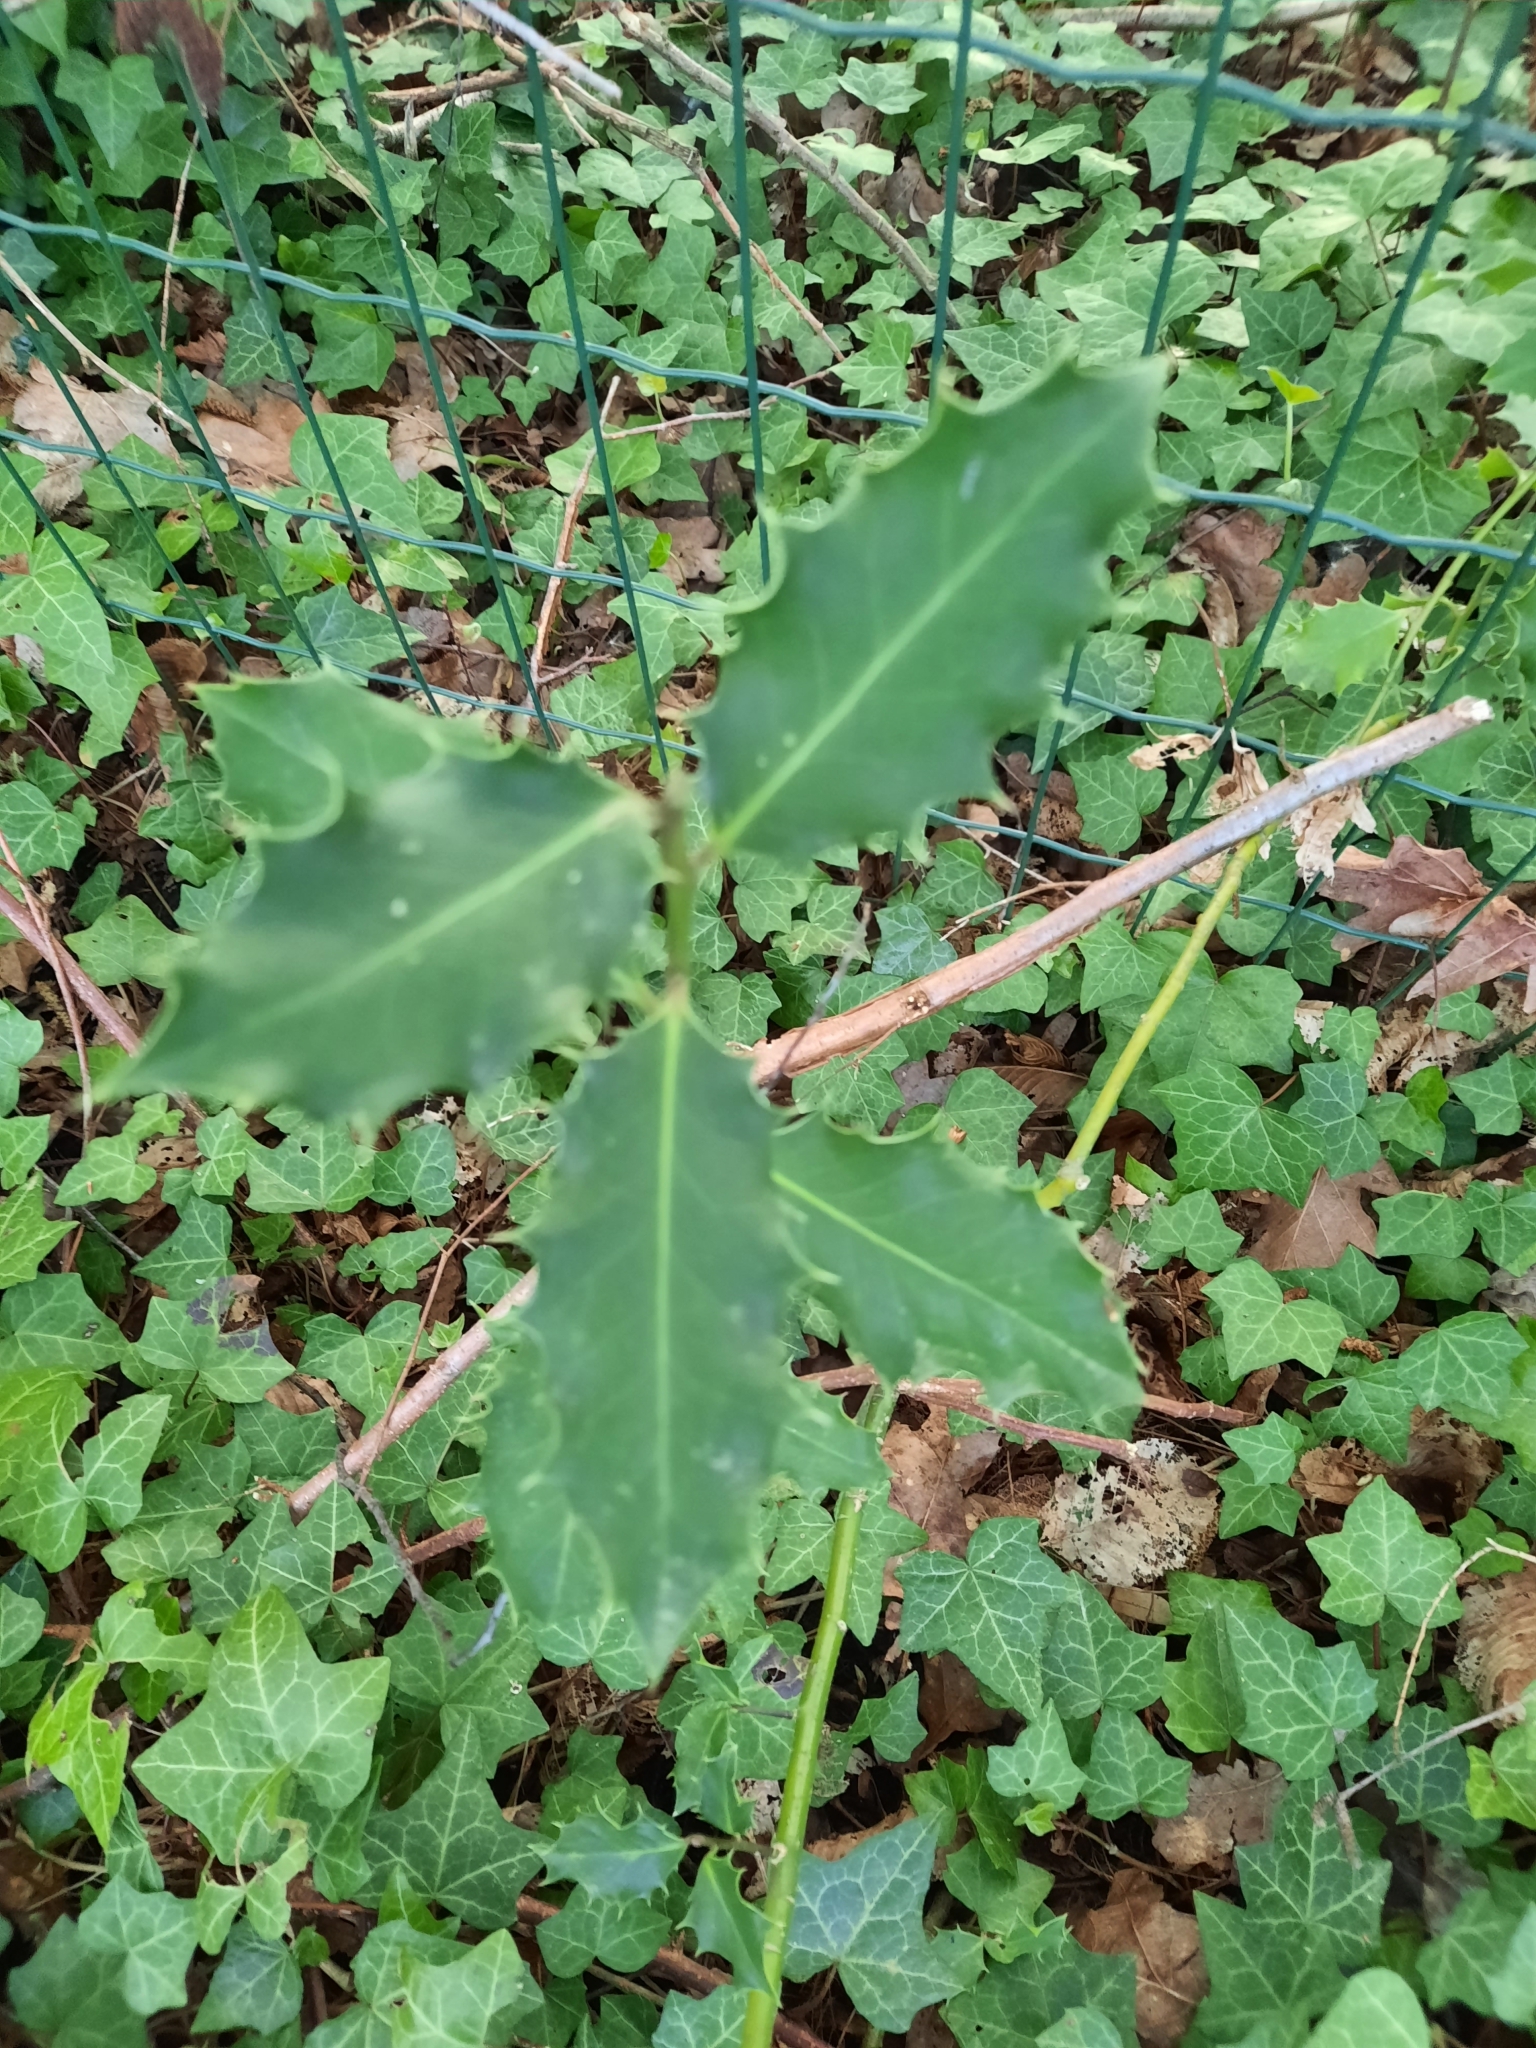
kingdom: Plantae
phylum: Tracheophyta
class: Magnoliopsida
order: Aquifoliales
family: Aquifoliaceae
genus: Ilex
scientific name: Ilex aquifolium
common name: English holly
